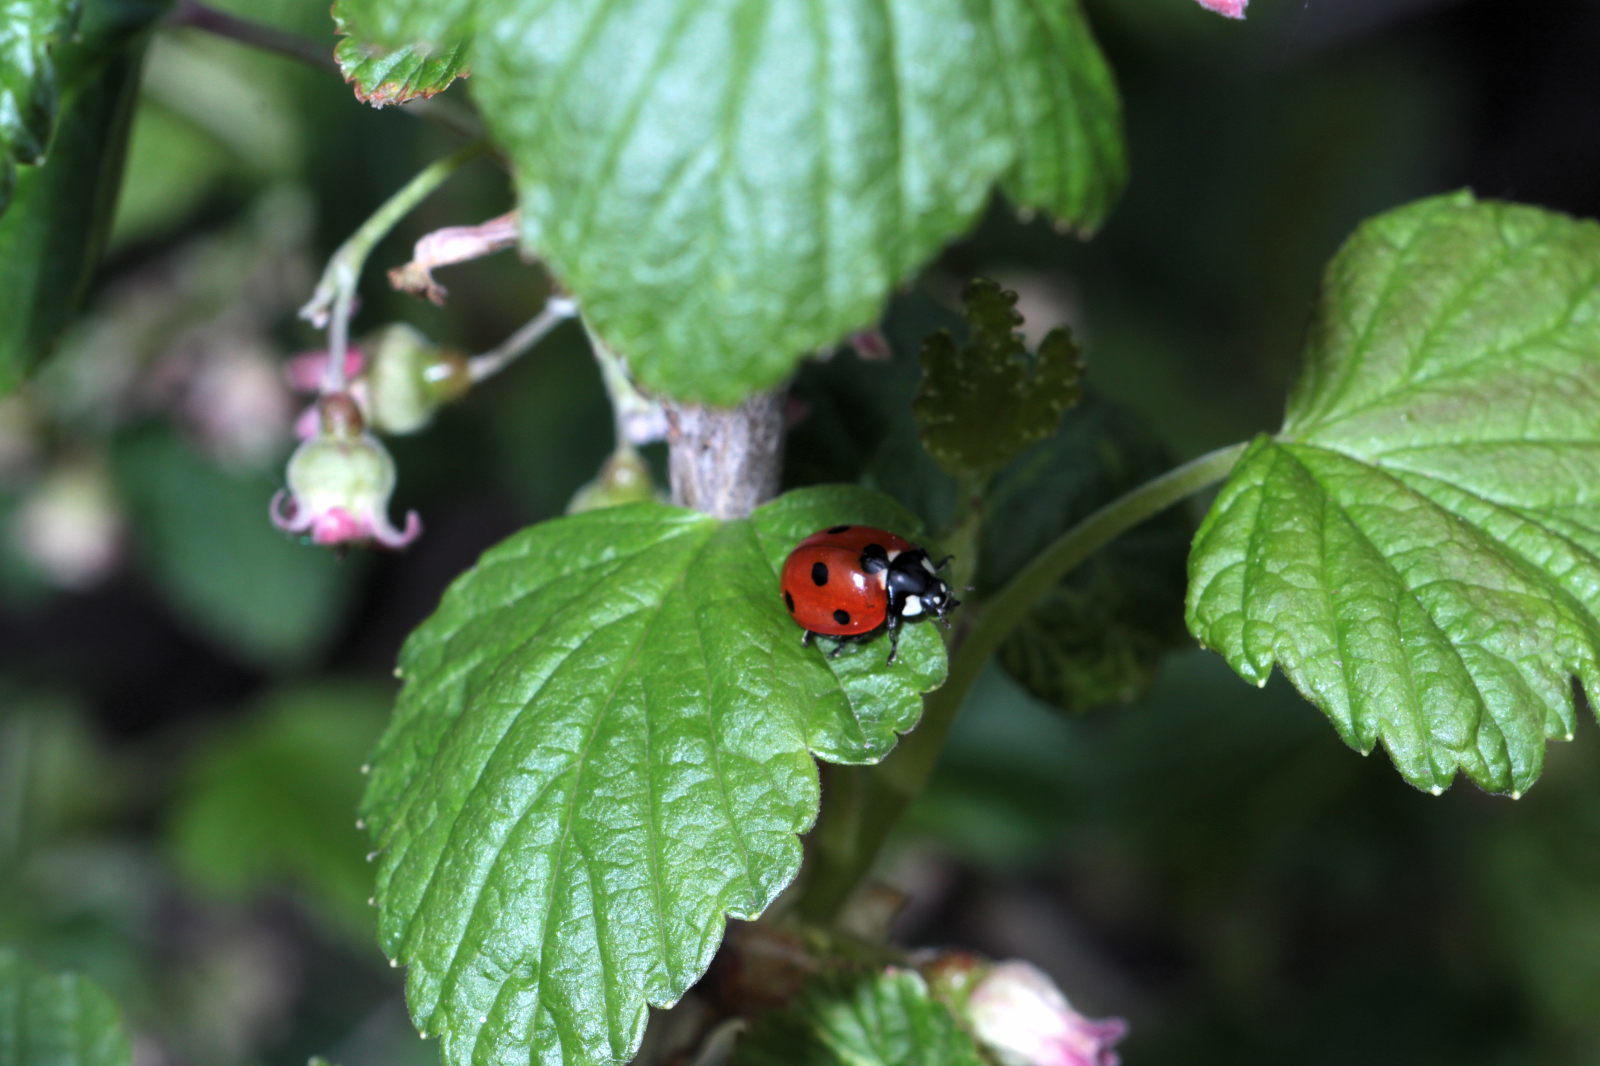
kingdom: Animalia
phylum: Arthropoda
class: Insecta
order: Coleoptera
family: Coccinellidae
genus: Coccinella
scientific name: Coccinella septempunctata
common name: Sevenspotted lady beetle
